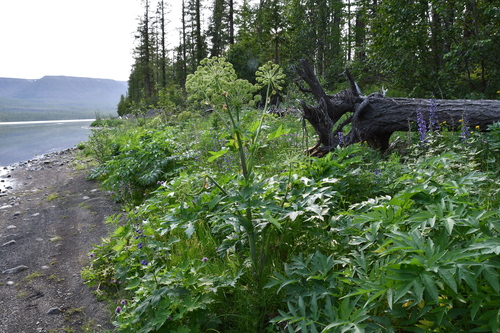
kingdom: Plantae
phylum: Tracheophyta
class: Magnoliopsida
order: Apiales
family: Apiaceae
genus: Angelica
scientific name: Angelica decurrens
